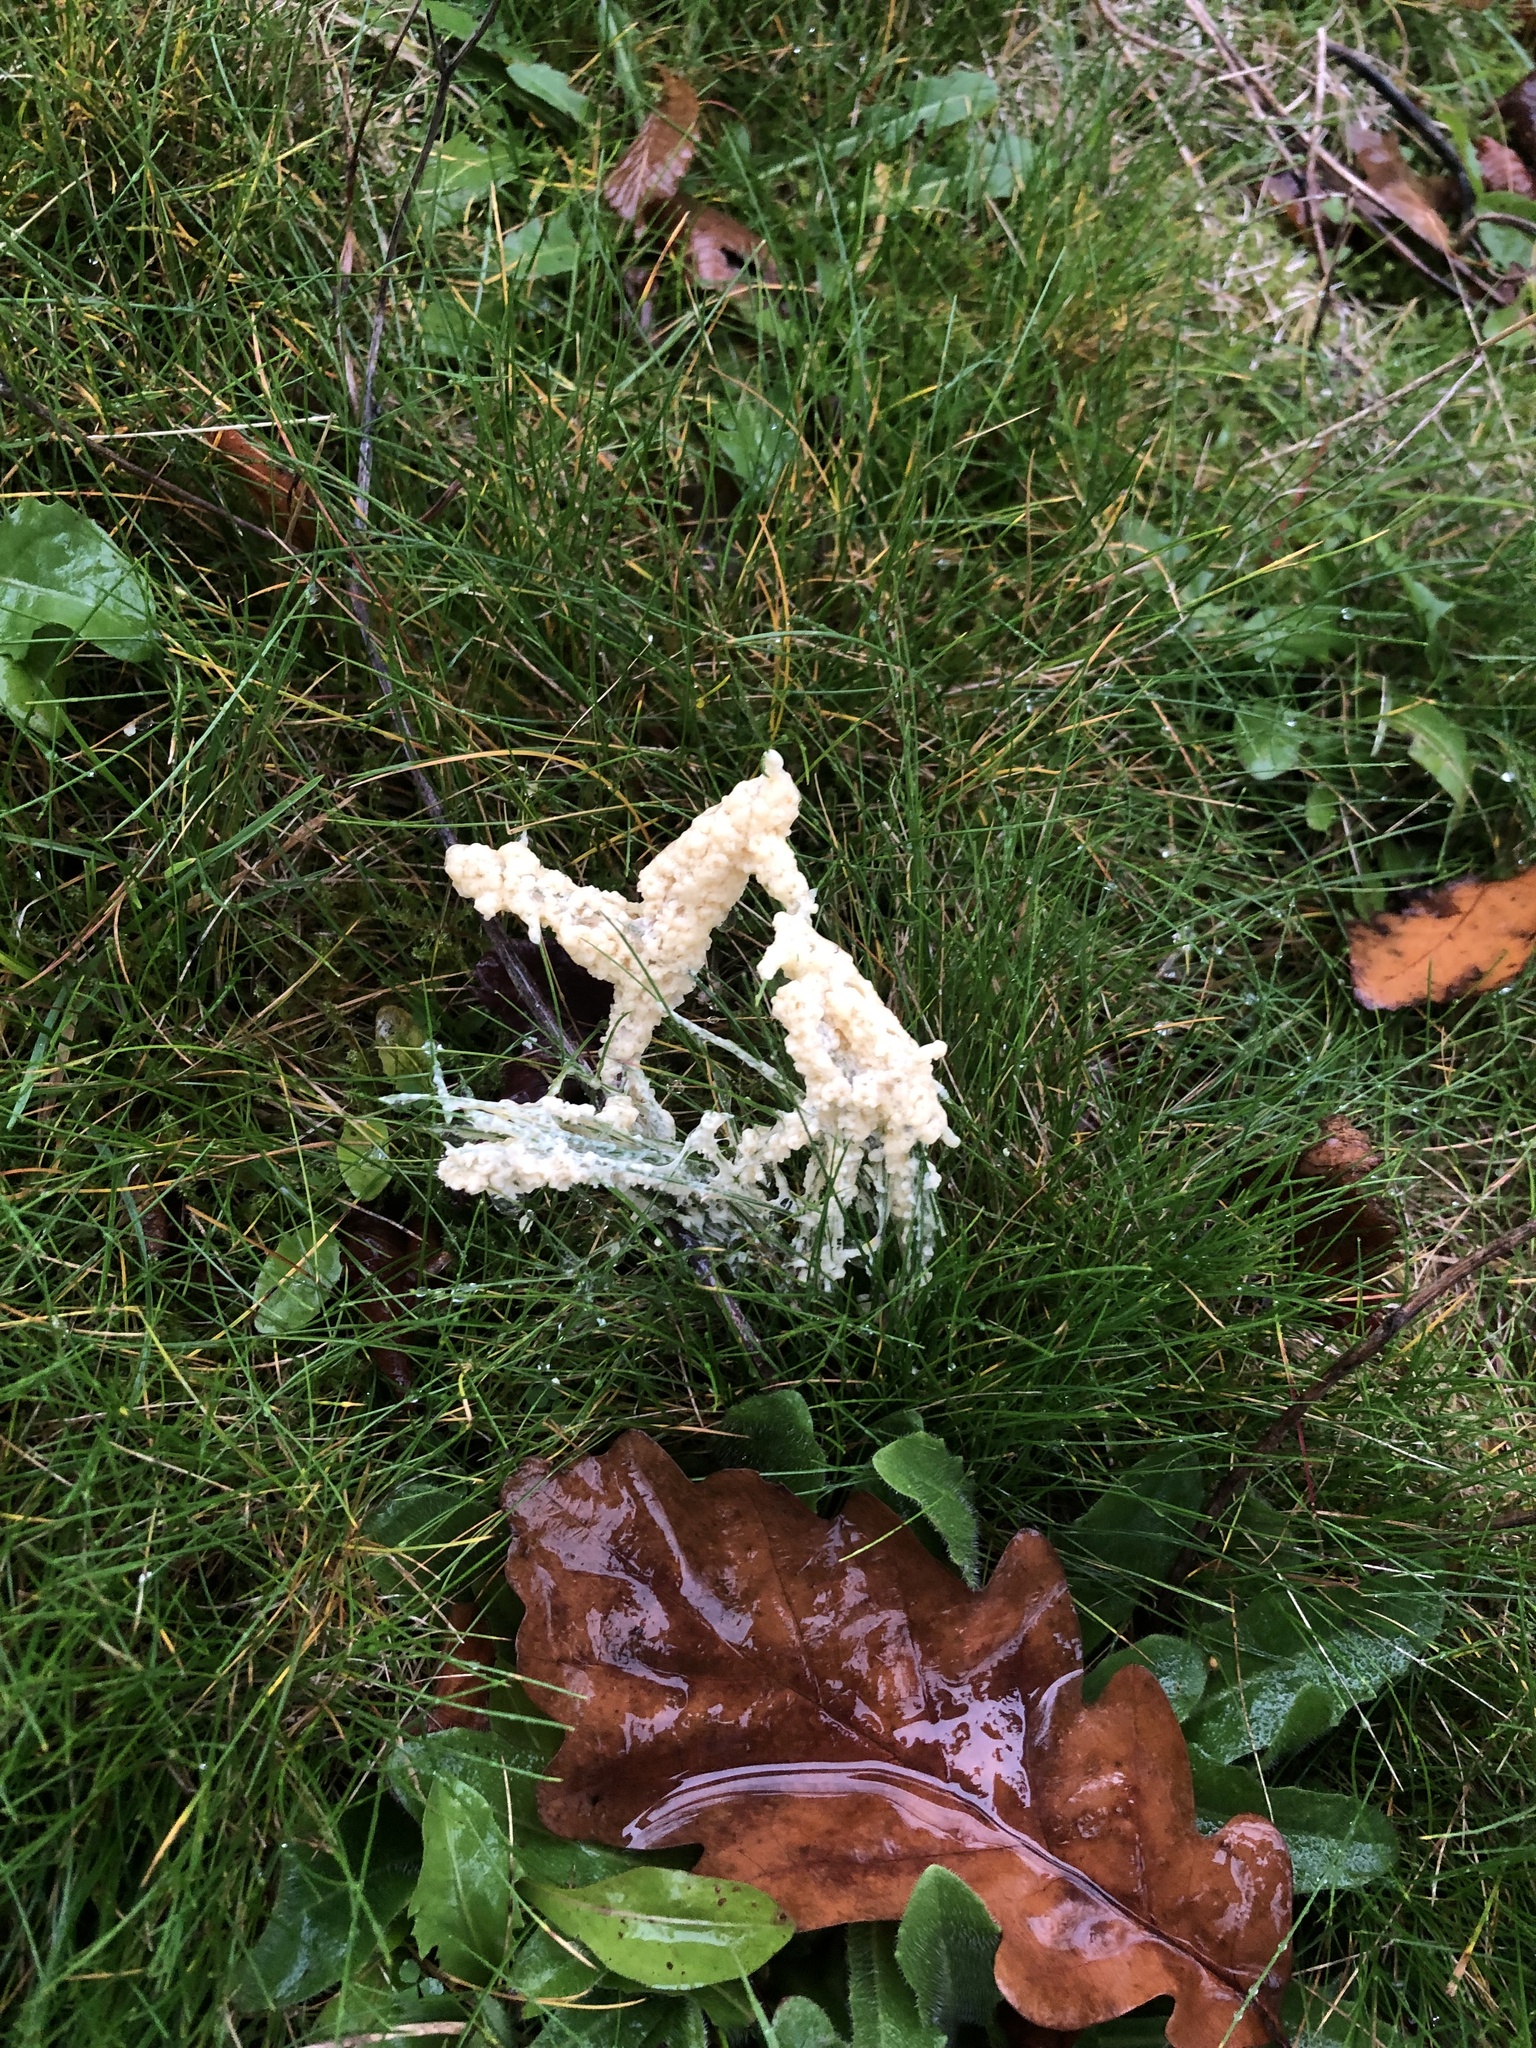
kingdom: Protozoa
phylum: Mycetozoa
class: Myxomycetes
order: Physarales
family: Physaraceae
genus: Didymium
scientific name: Didymium
